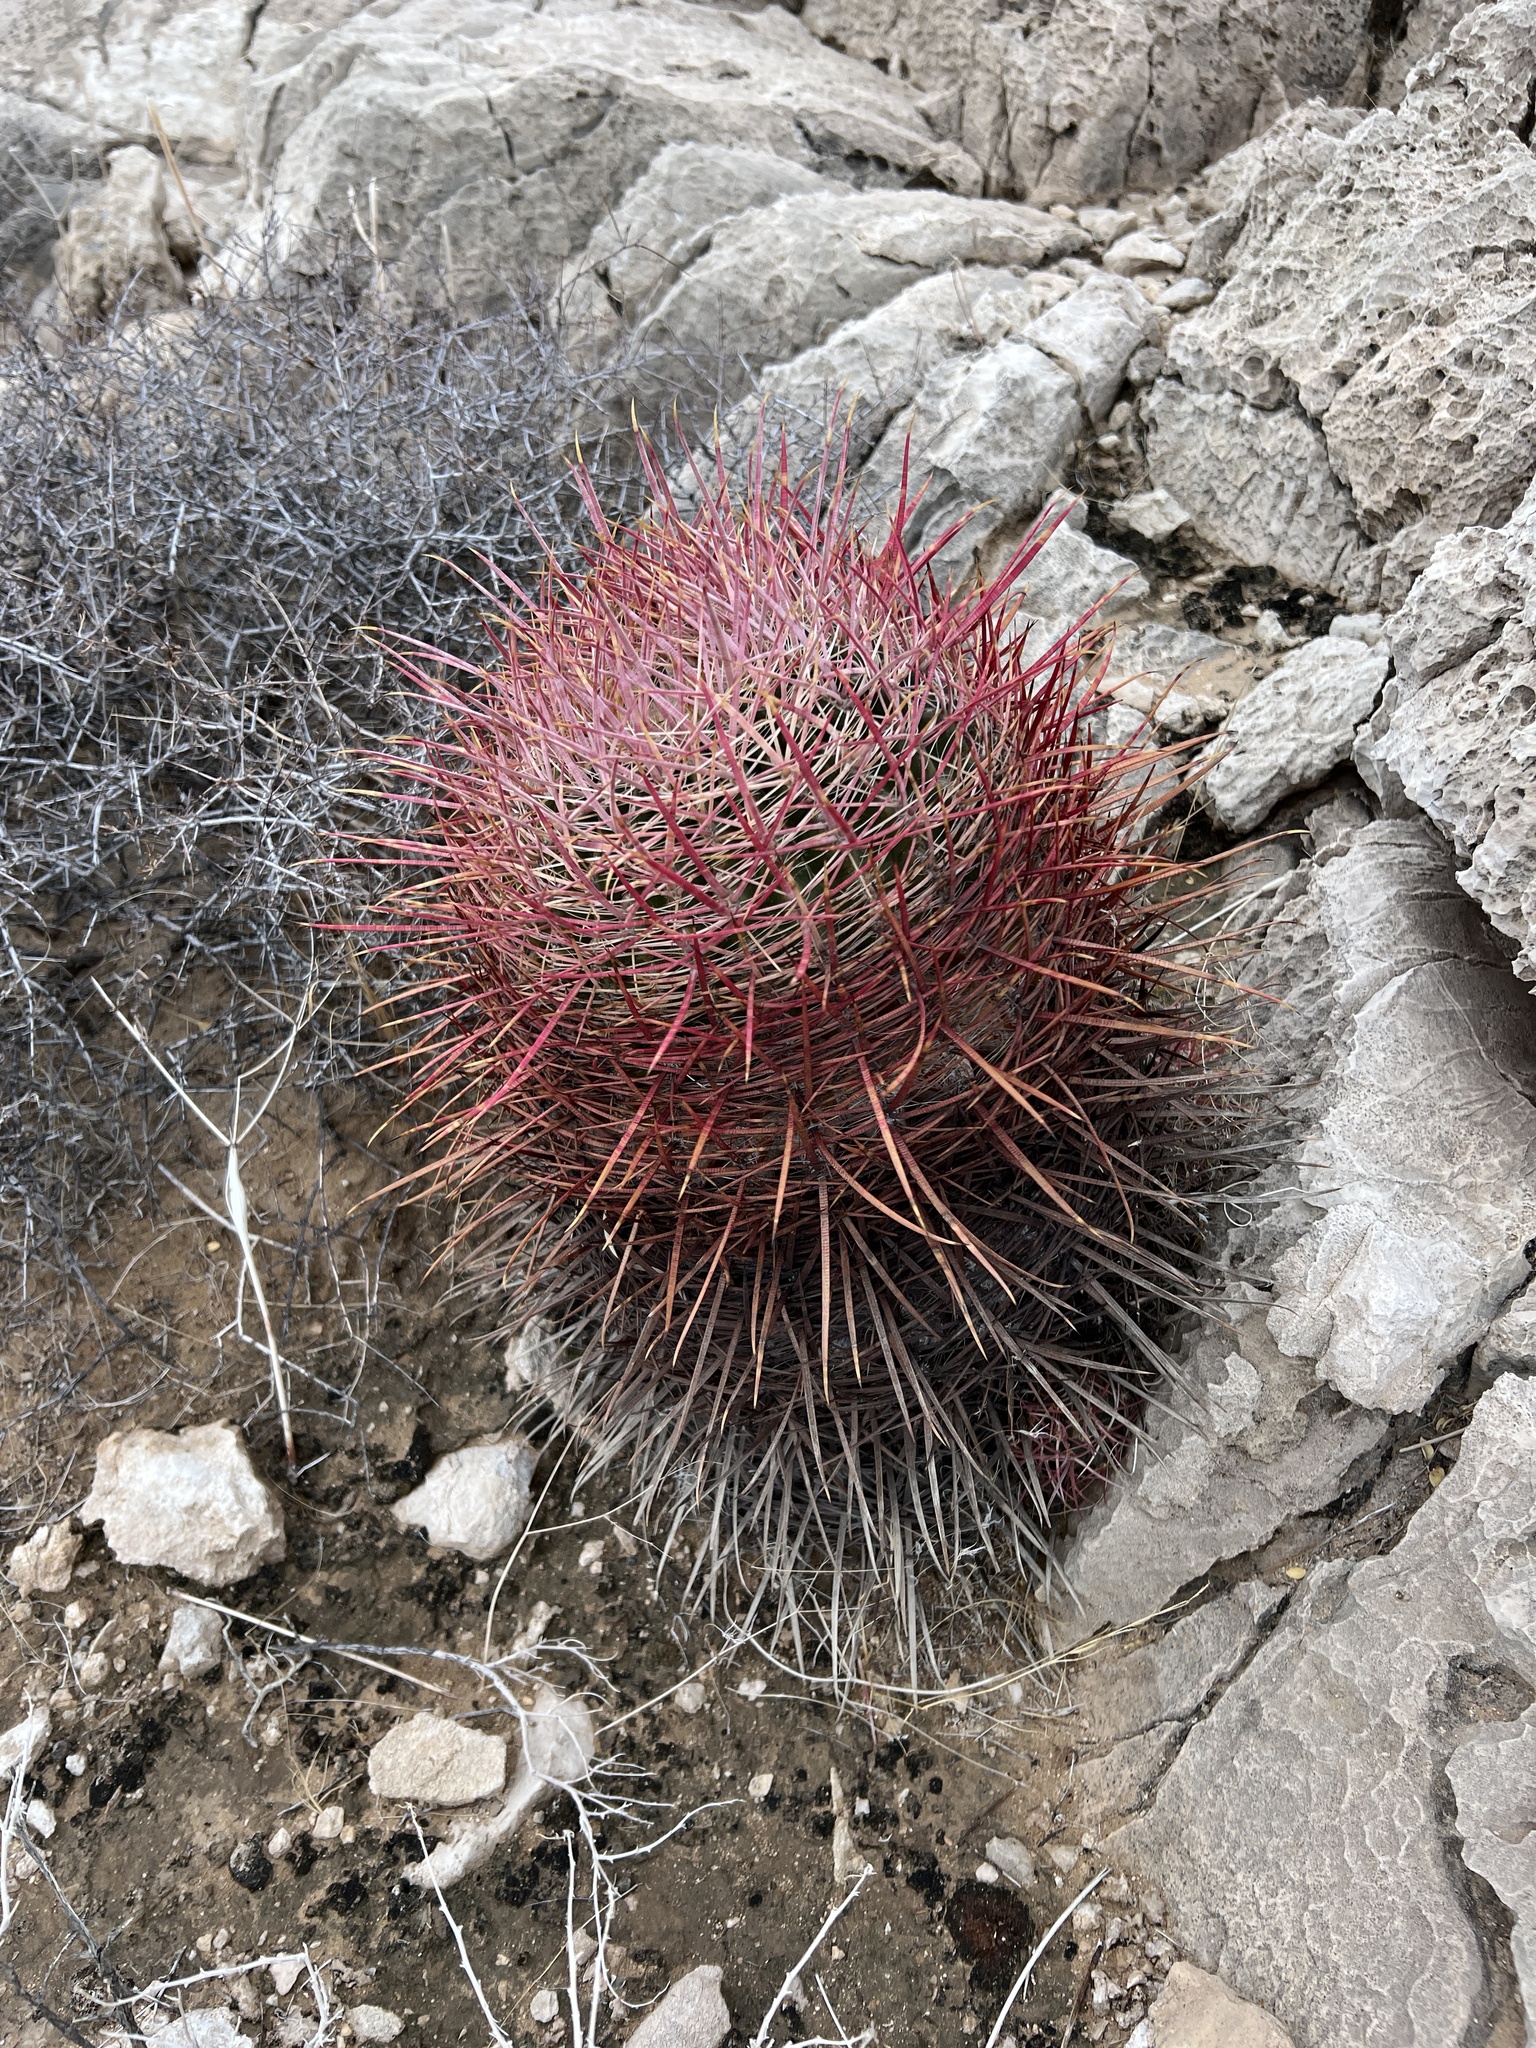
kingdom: Plantae
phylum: Tracheophyta
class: Magnoliopsida
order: Caryophyllales
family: Cactaceae
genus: Ferocactus
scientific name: Ferocactus cylindraceus
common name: California barrel cactus
